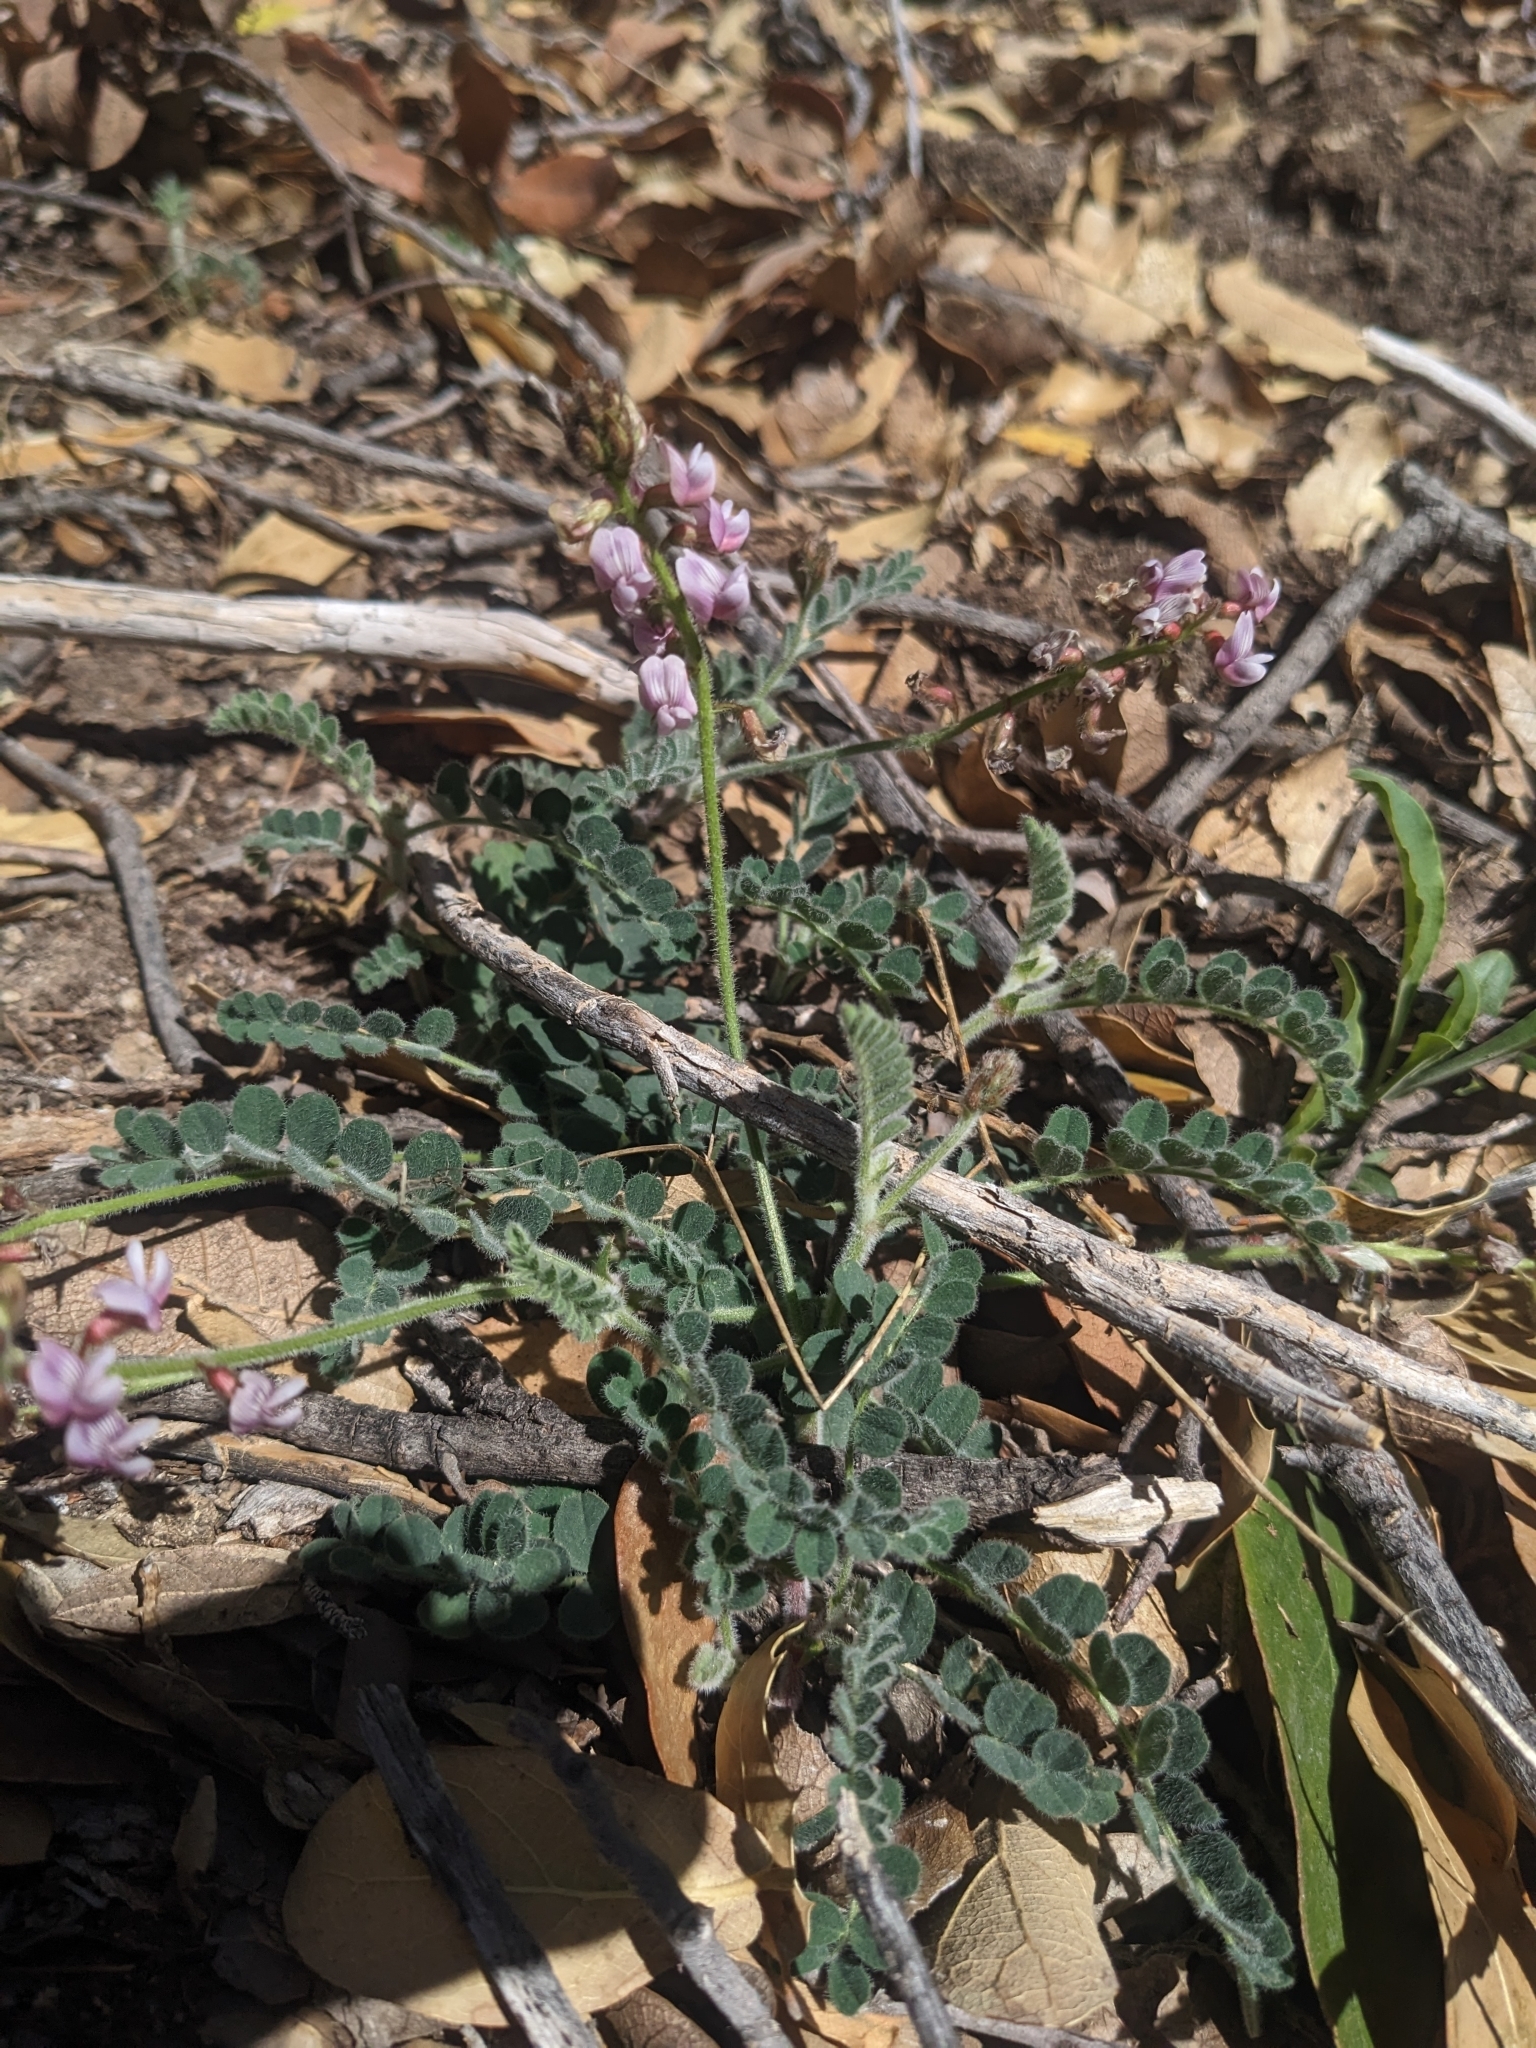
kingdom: Plantae
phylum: Tracheophyta
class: Magnoliopsida
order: Fabales
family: Fabaceae
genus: Astragalus
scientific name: Astragalus cobrensis
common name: Copper mine milkvetch
